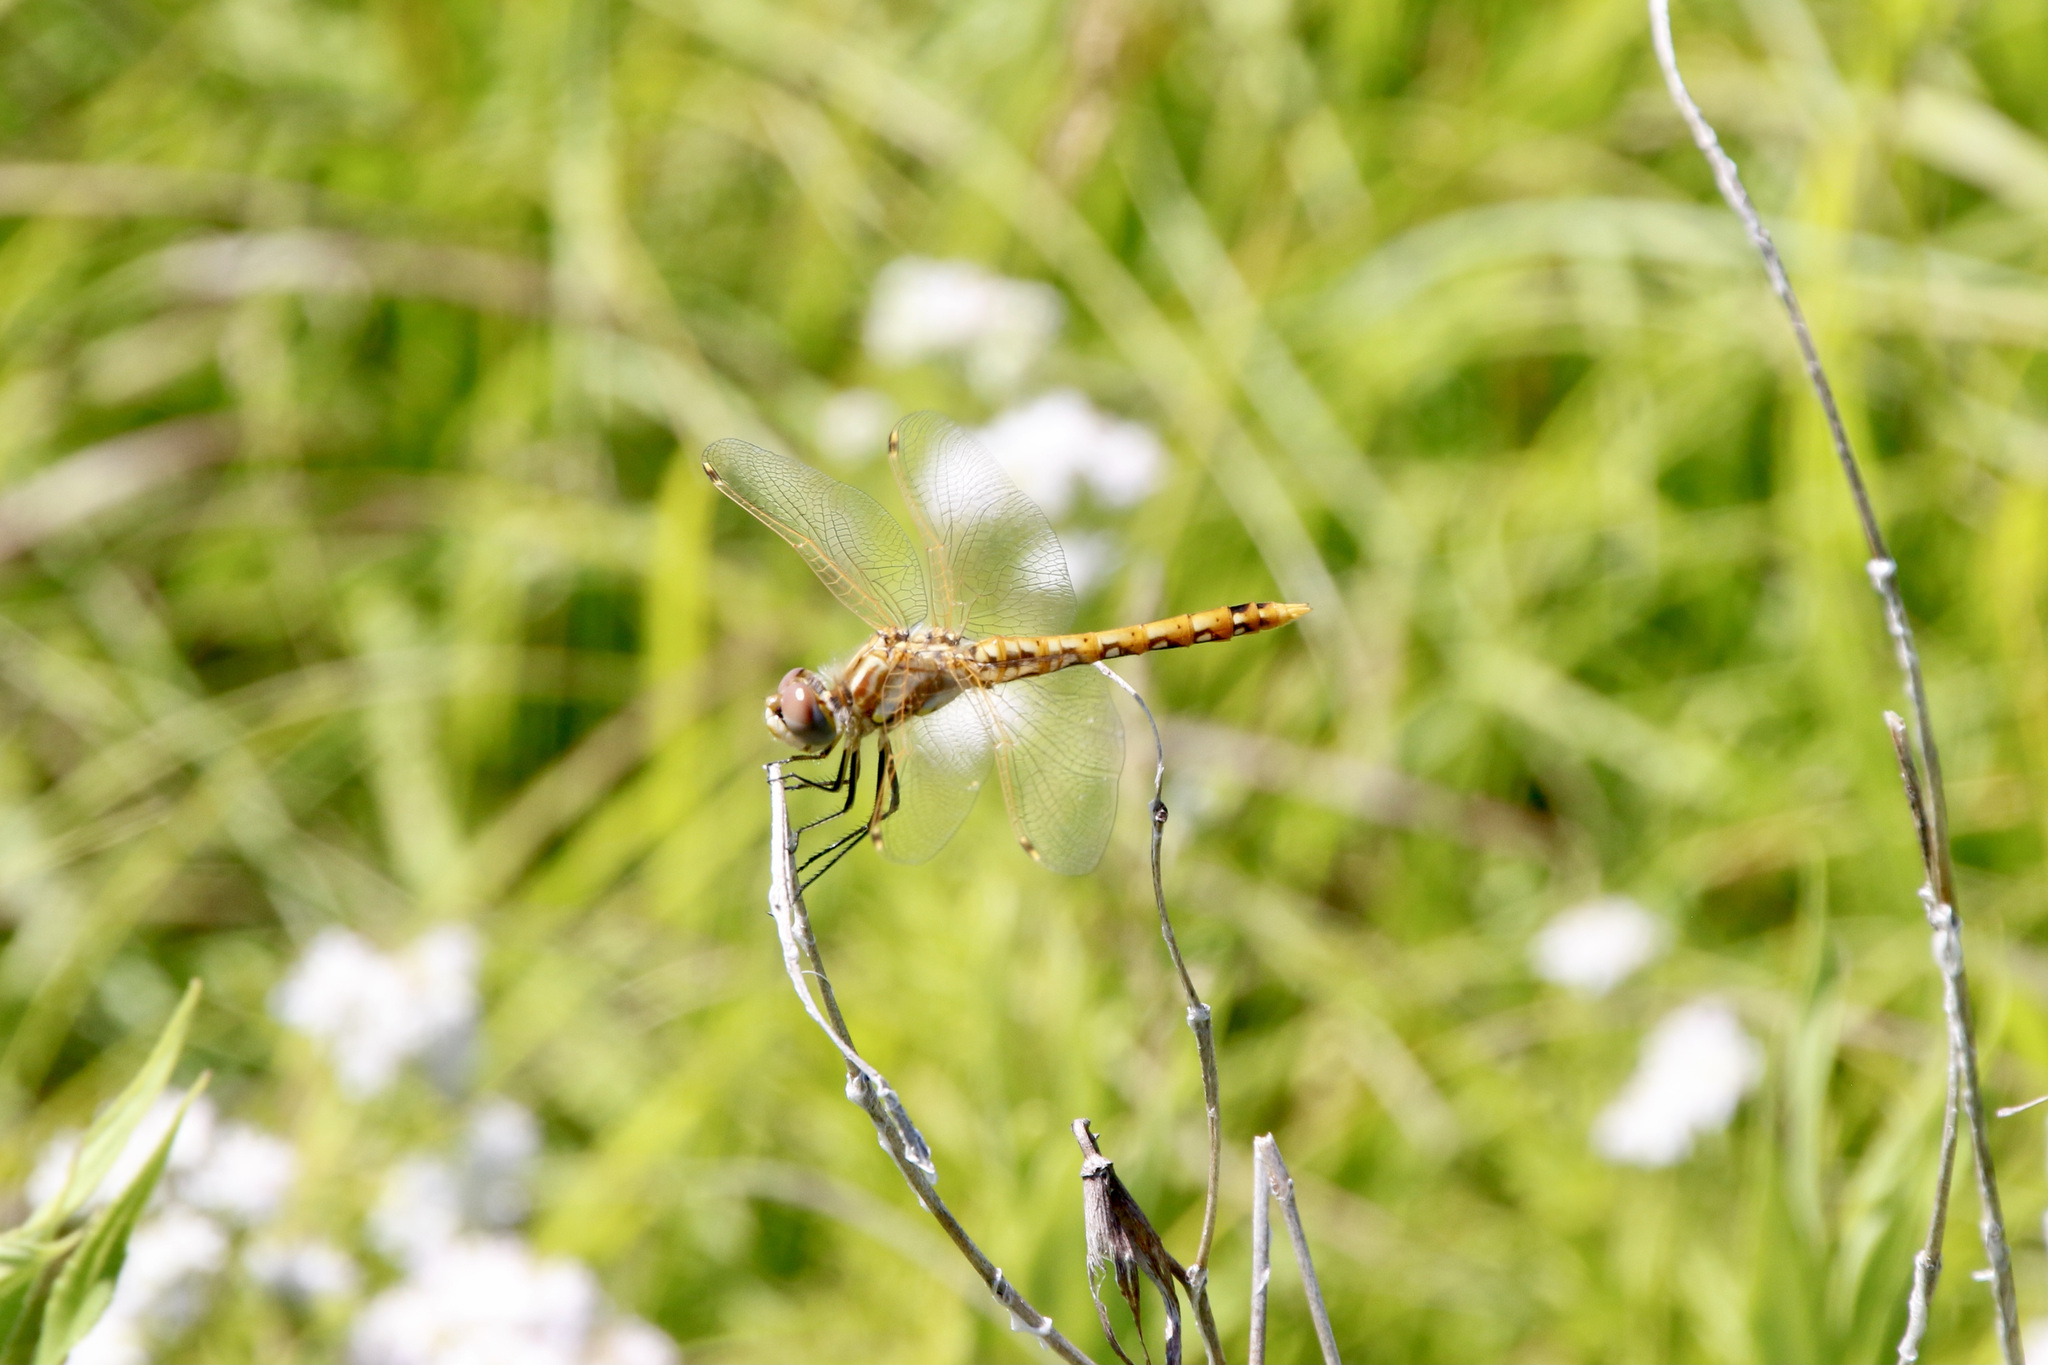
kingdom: Animalia
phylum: Arthropoda
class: Insecta
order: Odonata
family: Libellulidae
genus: Sympetrum
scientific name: Sympetrum corruptum
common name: Variegated meadowhawk
